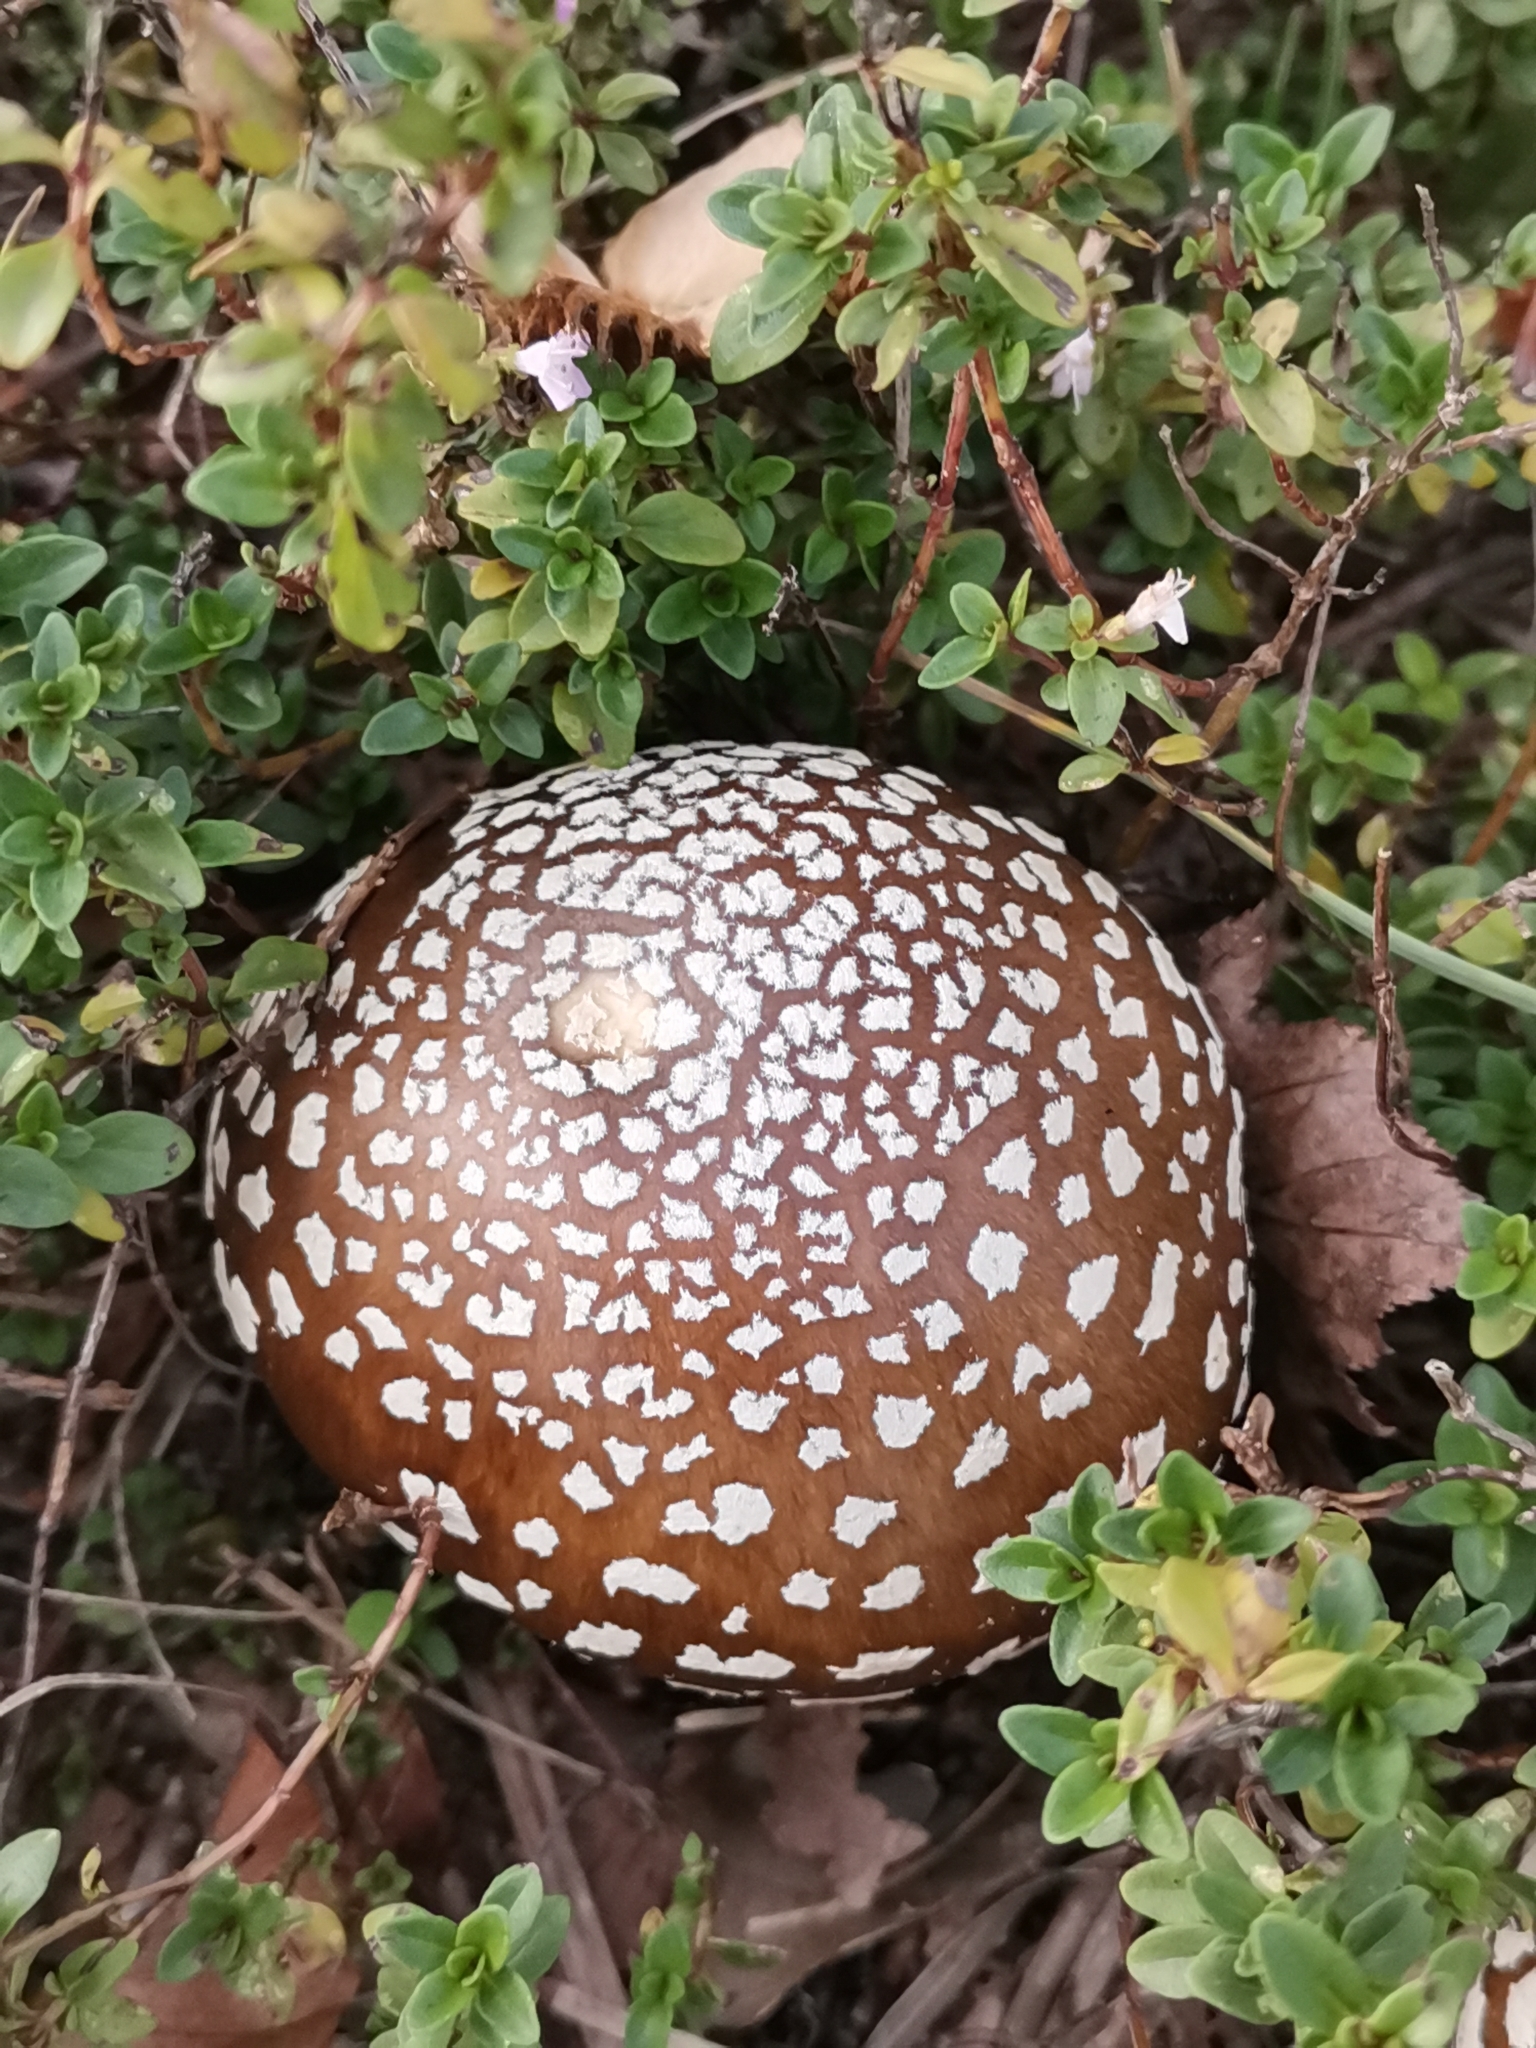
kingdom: Fungi
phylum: Basidiomycota
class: Agaricomycetes
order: Agaricales
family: Amanitaceae
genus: Amanita
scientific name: Amanita pantherina
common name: Panthercap
